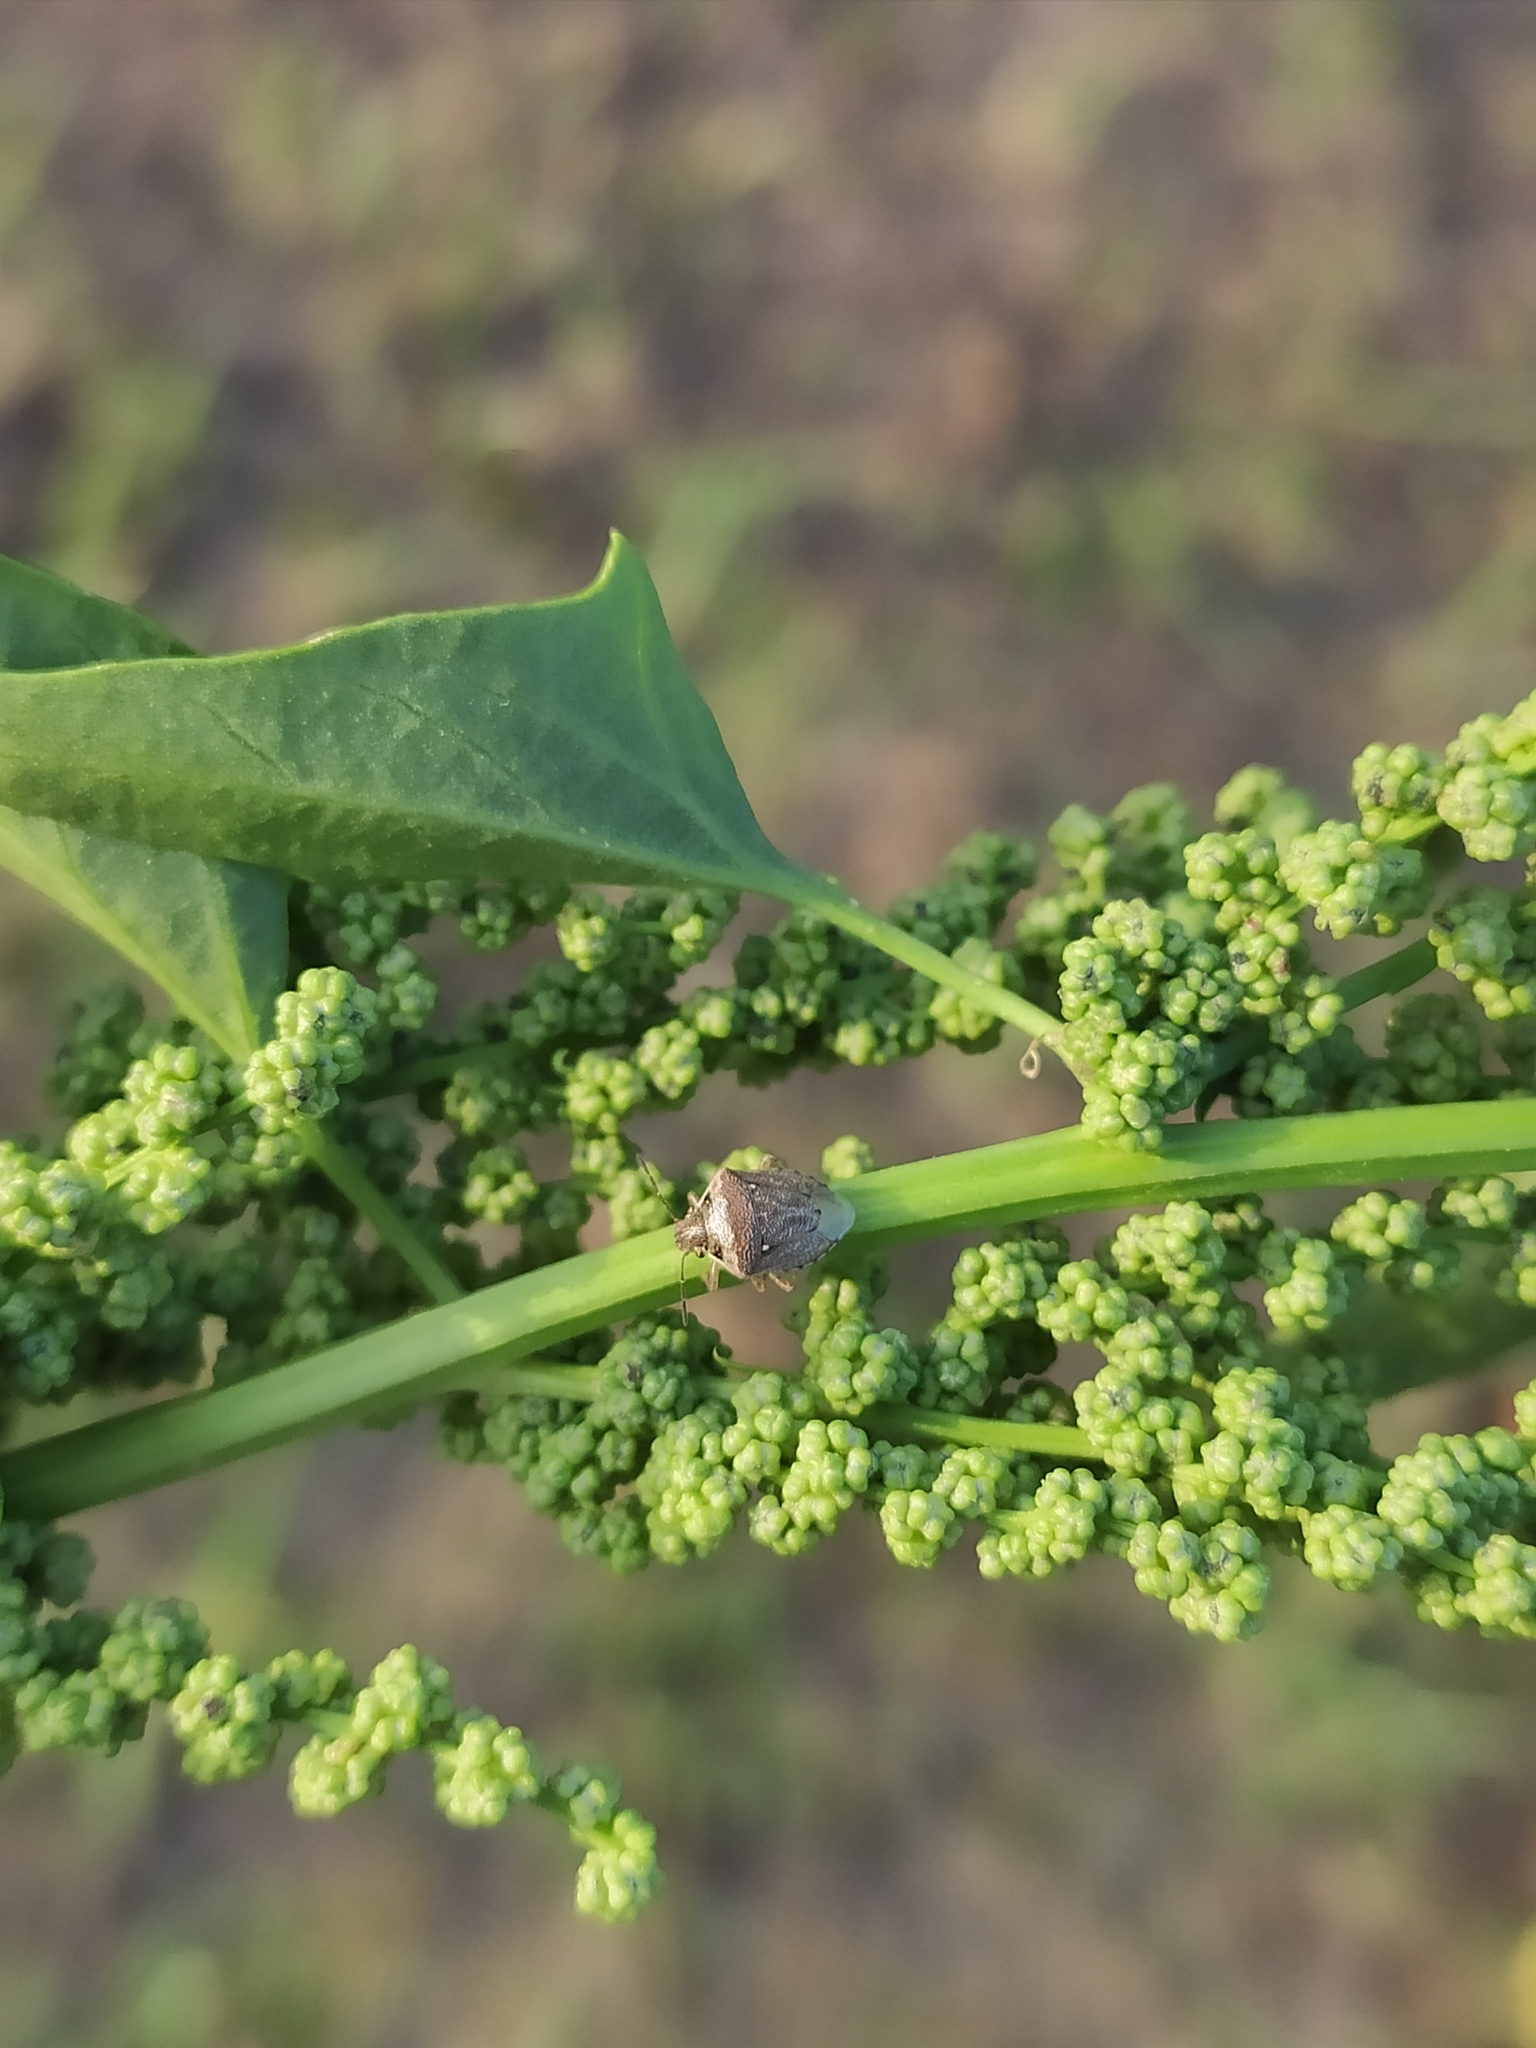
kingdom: Animalia
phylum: Arthropoda
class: Insecta
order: Hemiptera
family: Pentatomidae
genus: Eysarcoris
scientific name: Eysarcoris ventralis
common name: White-spotted stink bug
